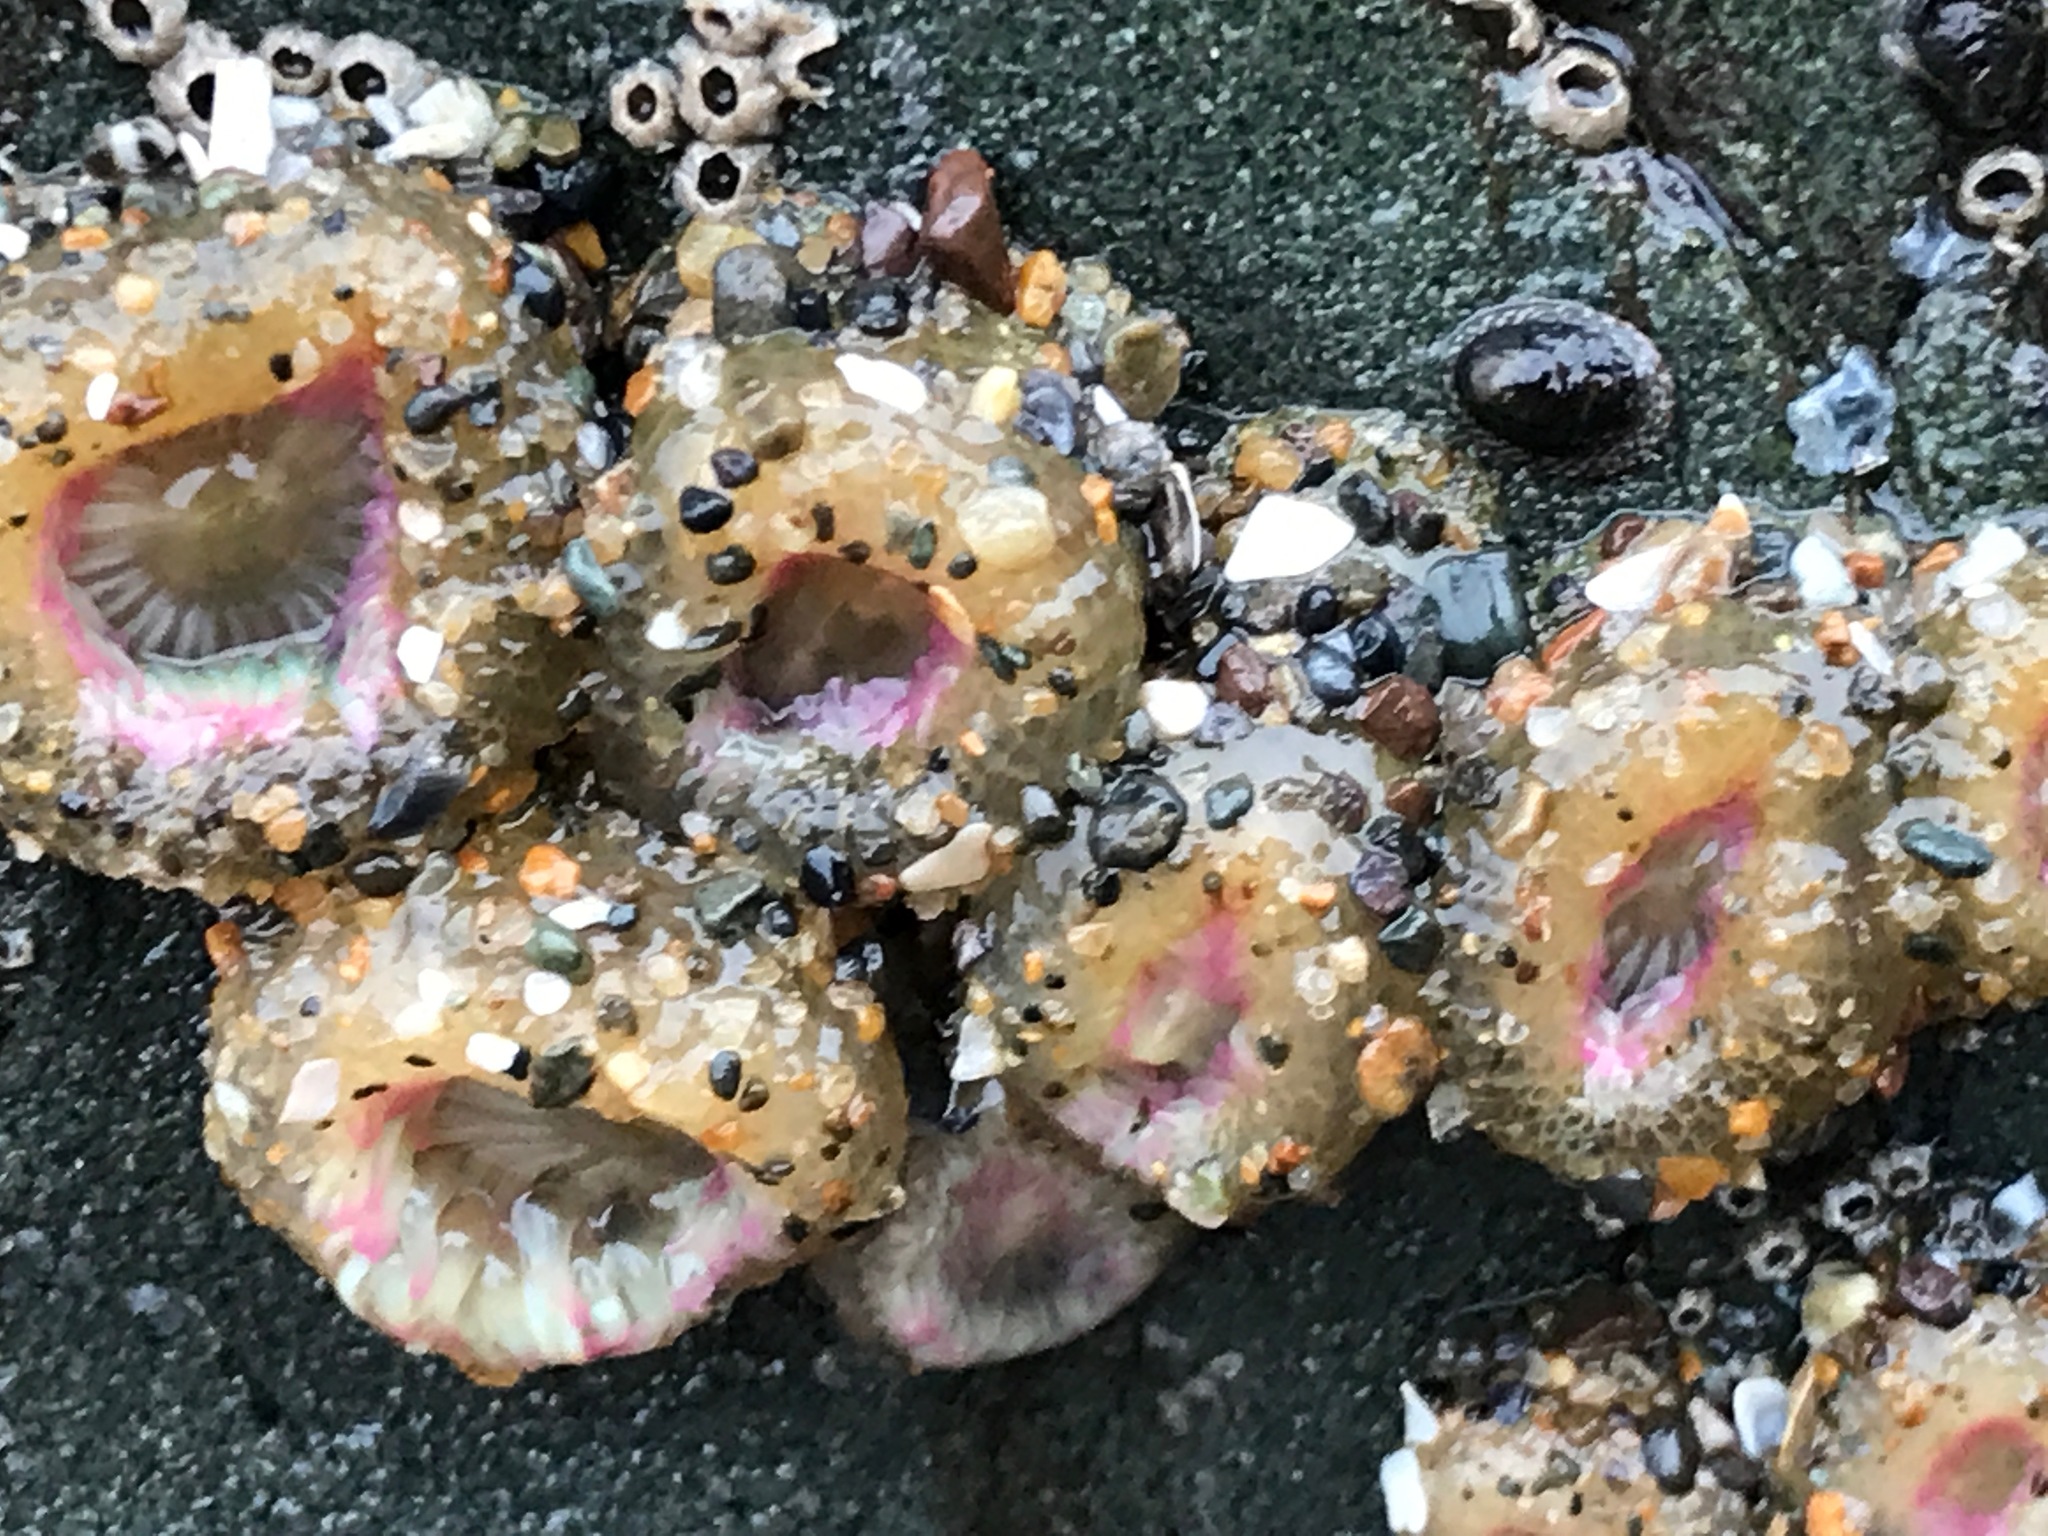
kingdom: Animalia
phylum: Cnidaria
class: Anthozoa
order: Actiniaria
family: Actiniidae
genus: Anthopleura
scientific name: Anthopleura elegantissima
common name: Clonal anemone
